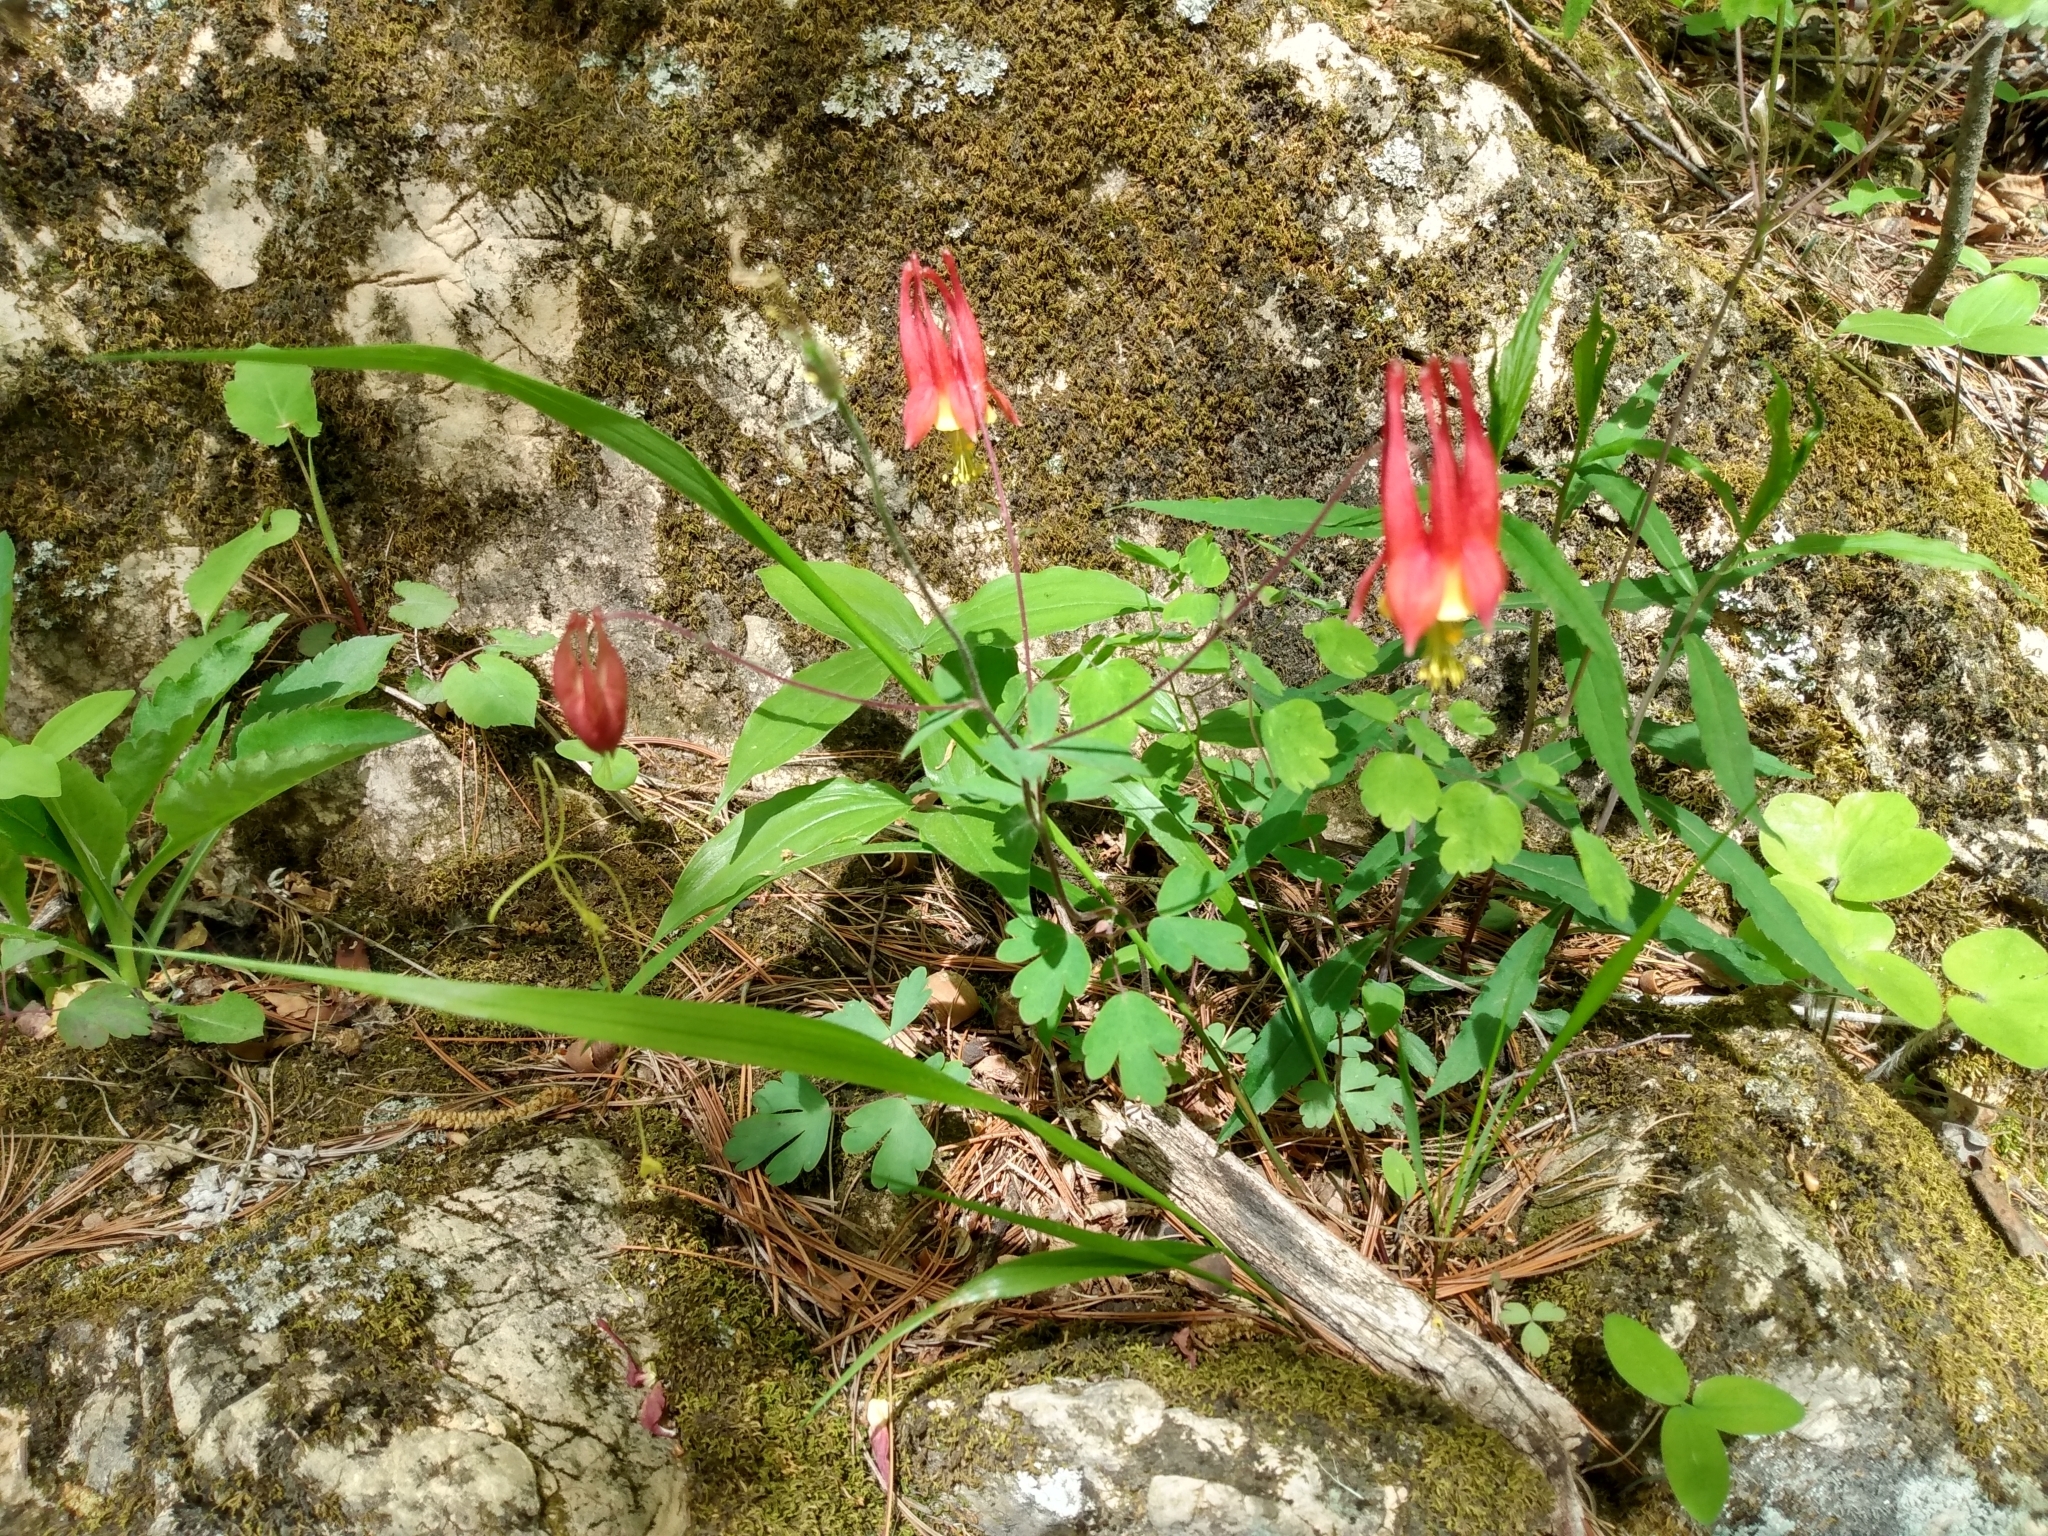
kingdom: Plantae
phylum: Tracheophyta
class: Magnoliopsida
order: Ranunculales
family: Ranunculaceae
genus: Aquilegia
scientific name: Aquilegia canadensis
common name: American columbine
